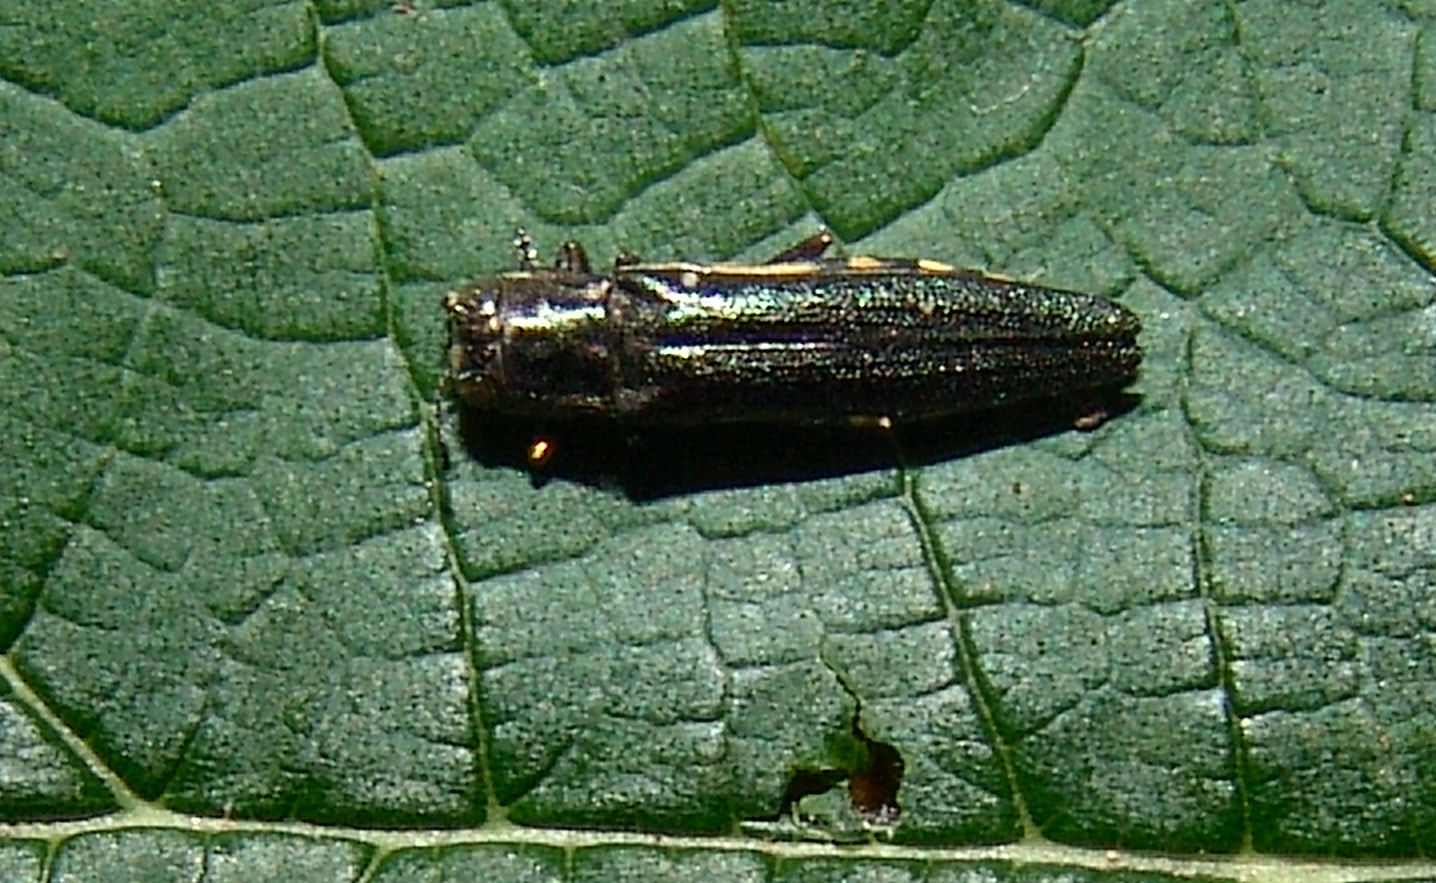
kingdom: Animalia
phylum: Arthropoda
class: Insecta
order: Coleoptera
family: Buprestidae
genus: Agrilus
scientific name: Agrilus difficilis
